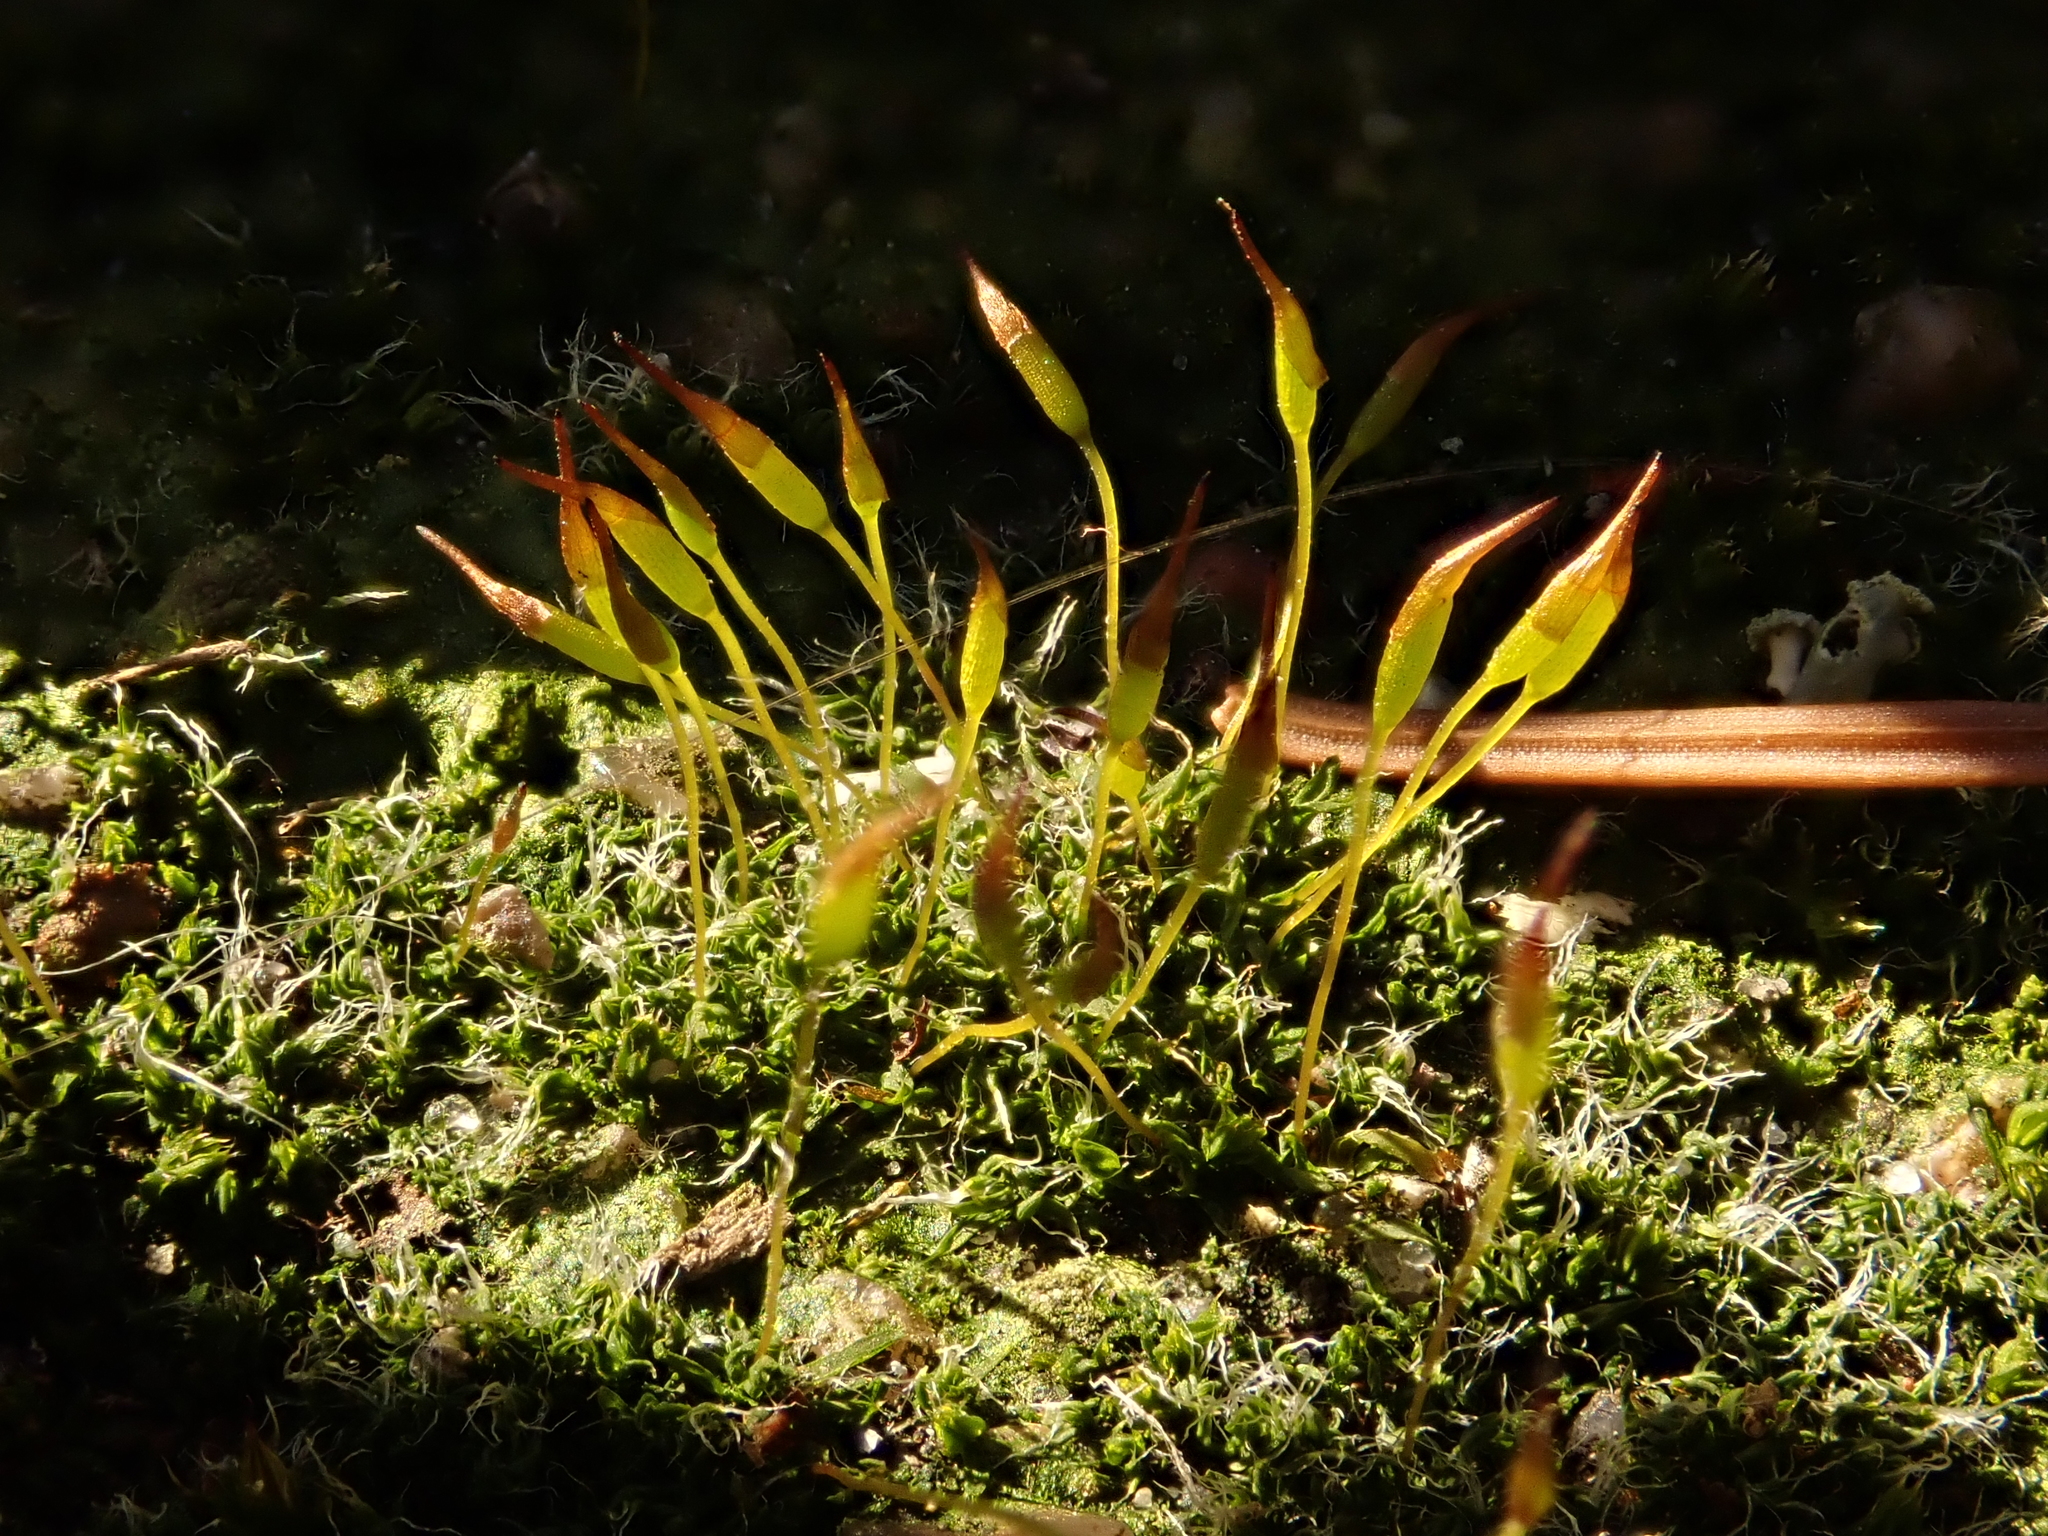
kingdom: Plantae
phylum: Bryophyta
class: Bryopsida
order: Pottiales
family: Pottiaceae
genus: Tortula
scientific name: Tortula muralis
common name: Wall screw-moss
